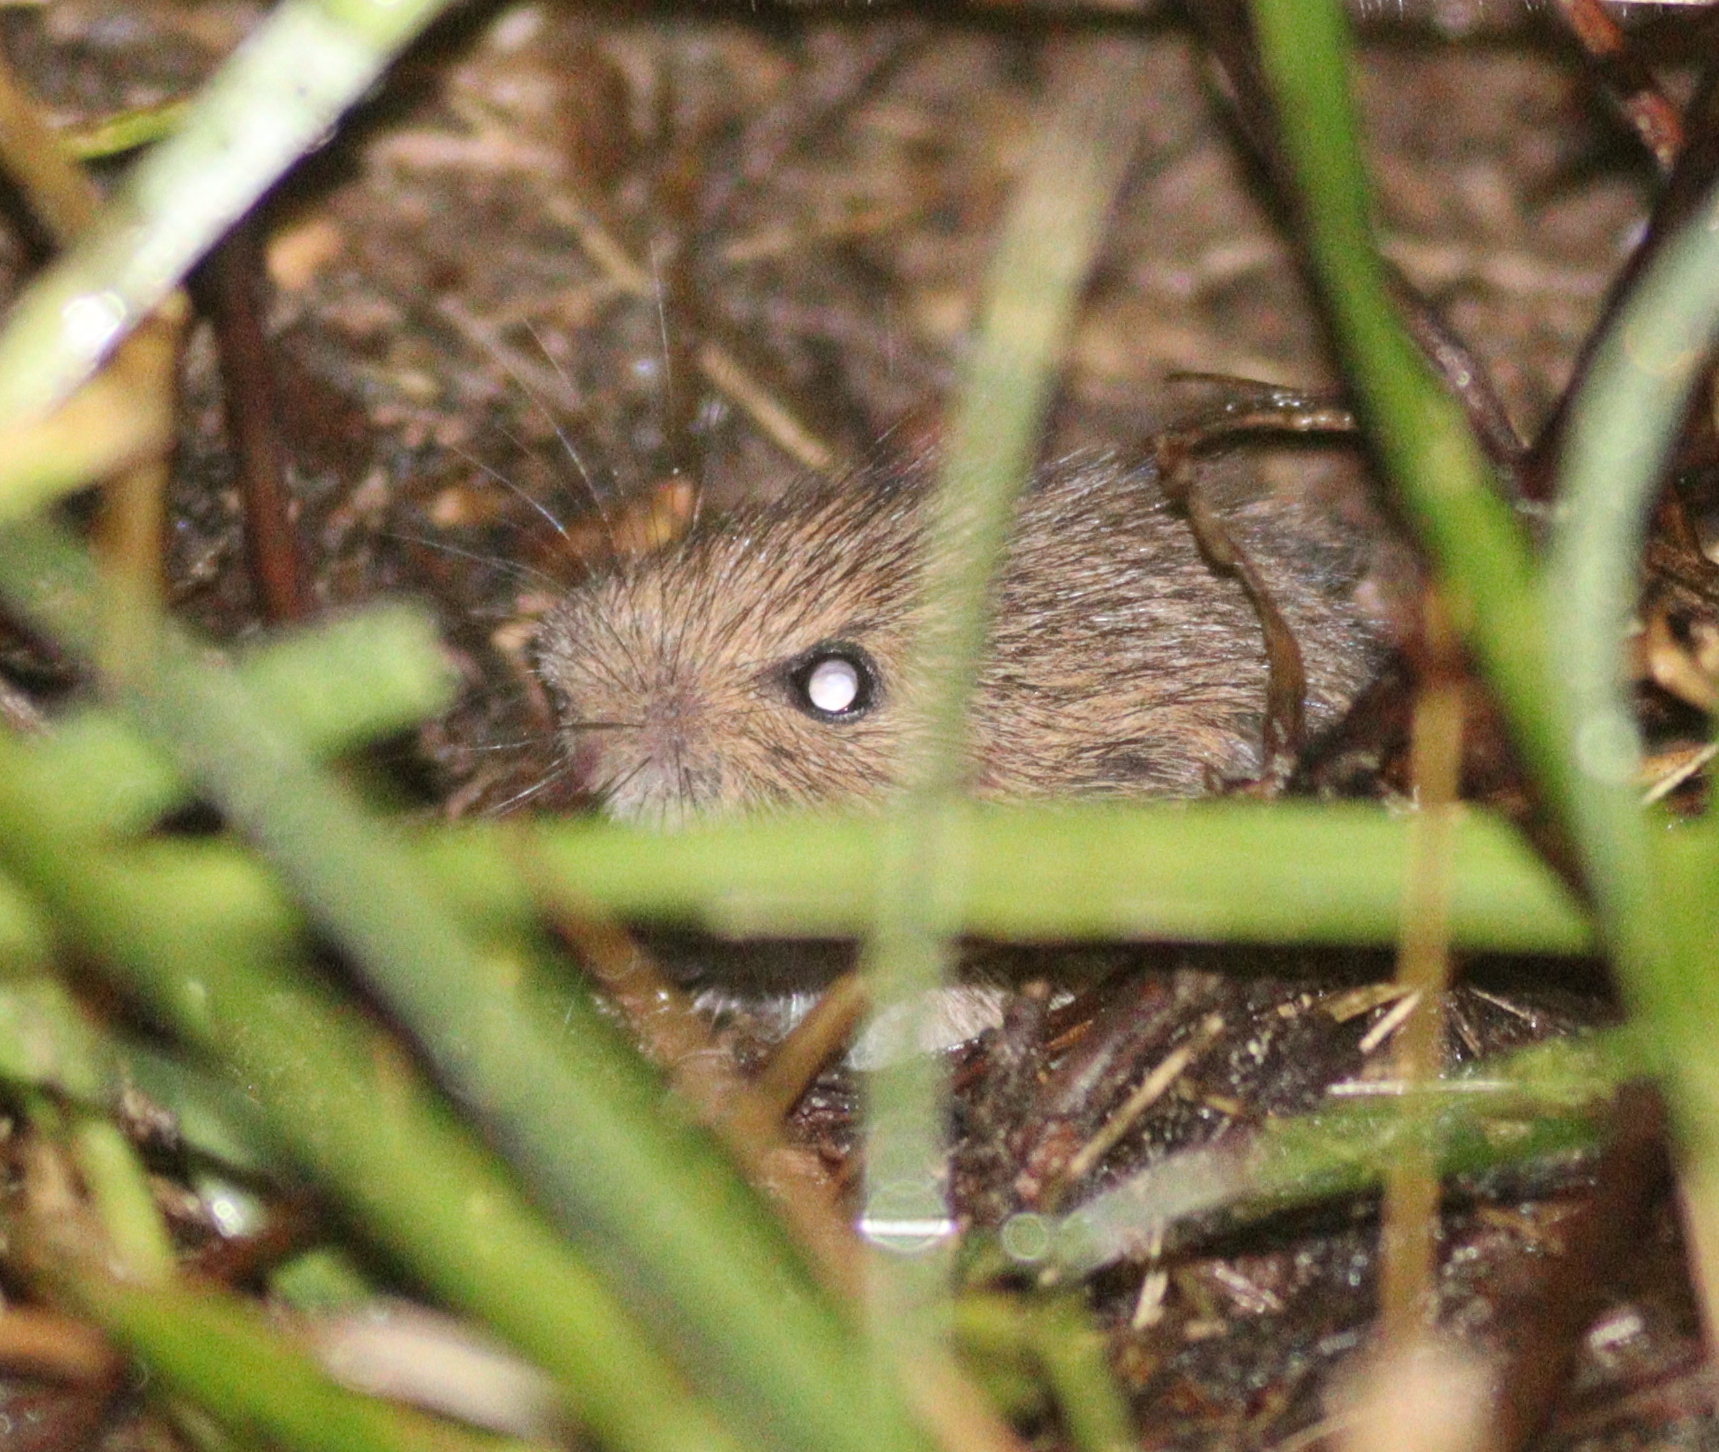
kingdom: Animalia
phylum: Chordata
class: Mammalia
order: Rodentia
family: Cricetidae
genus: Microtus
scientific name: Microtus arvalis
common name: Common vole
